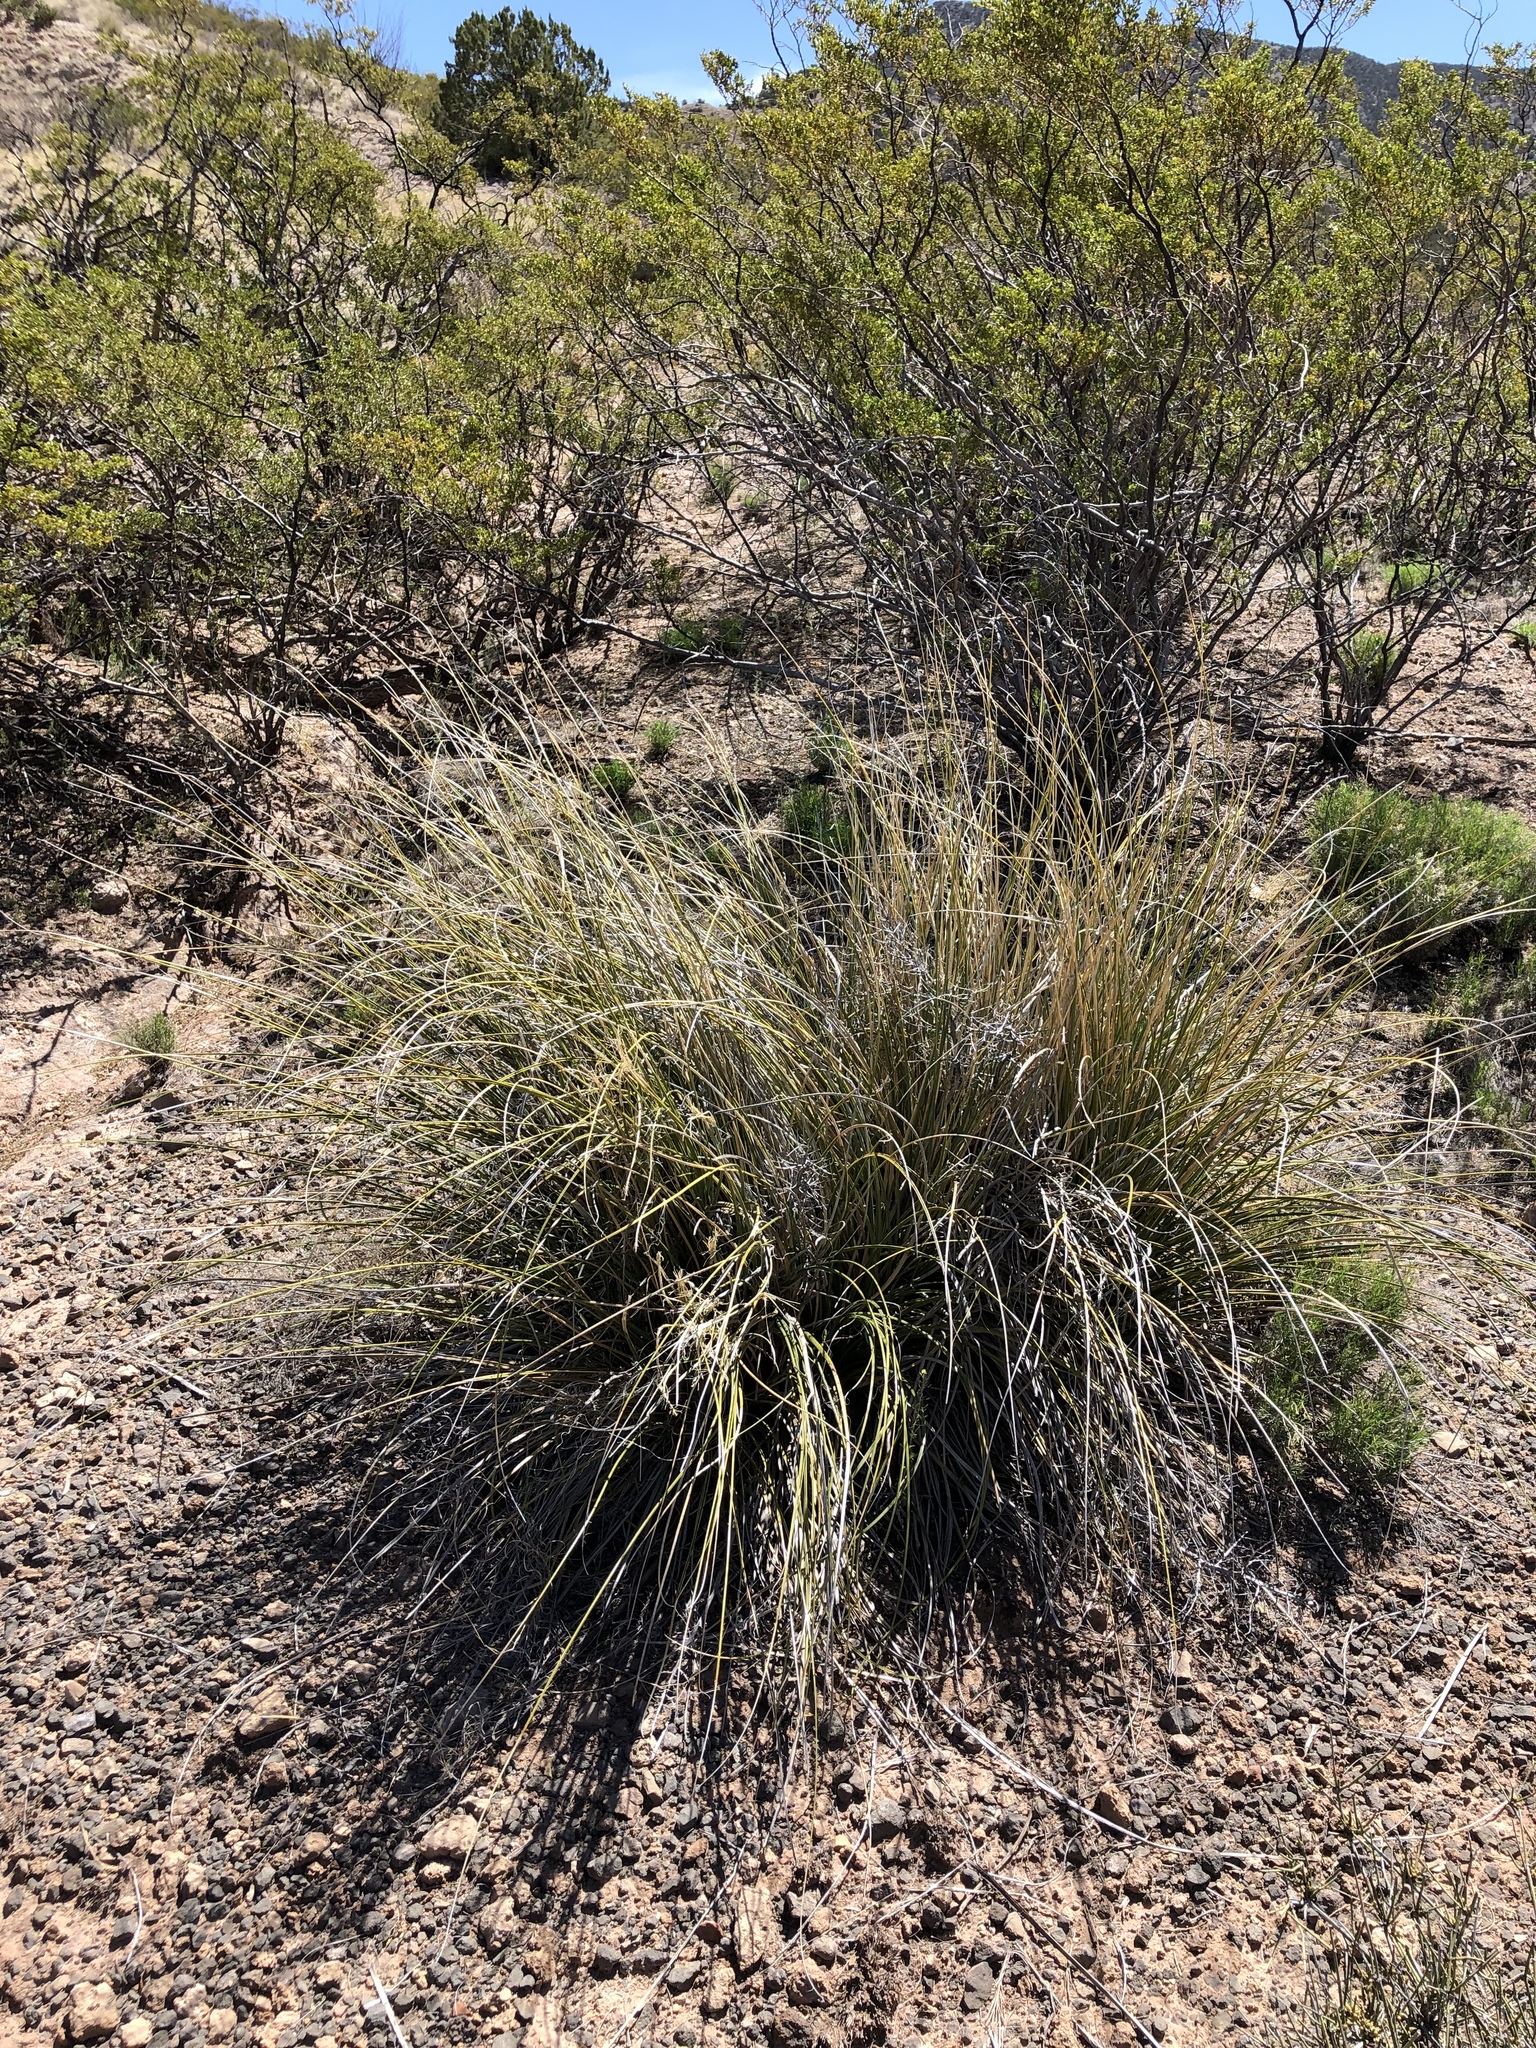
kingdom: Plantae
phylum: Tracheophyta
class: Liliopsida
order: Asparagales
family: Asparagaceae
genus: Nolina
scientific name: Nolina microcarpa
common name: Bear-grass
